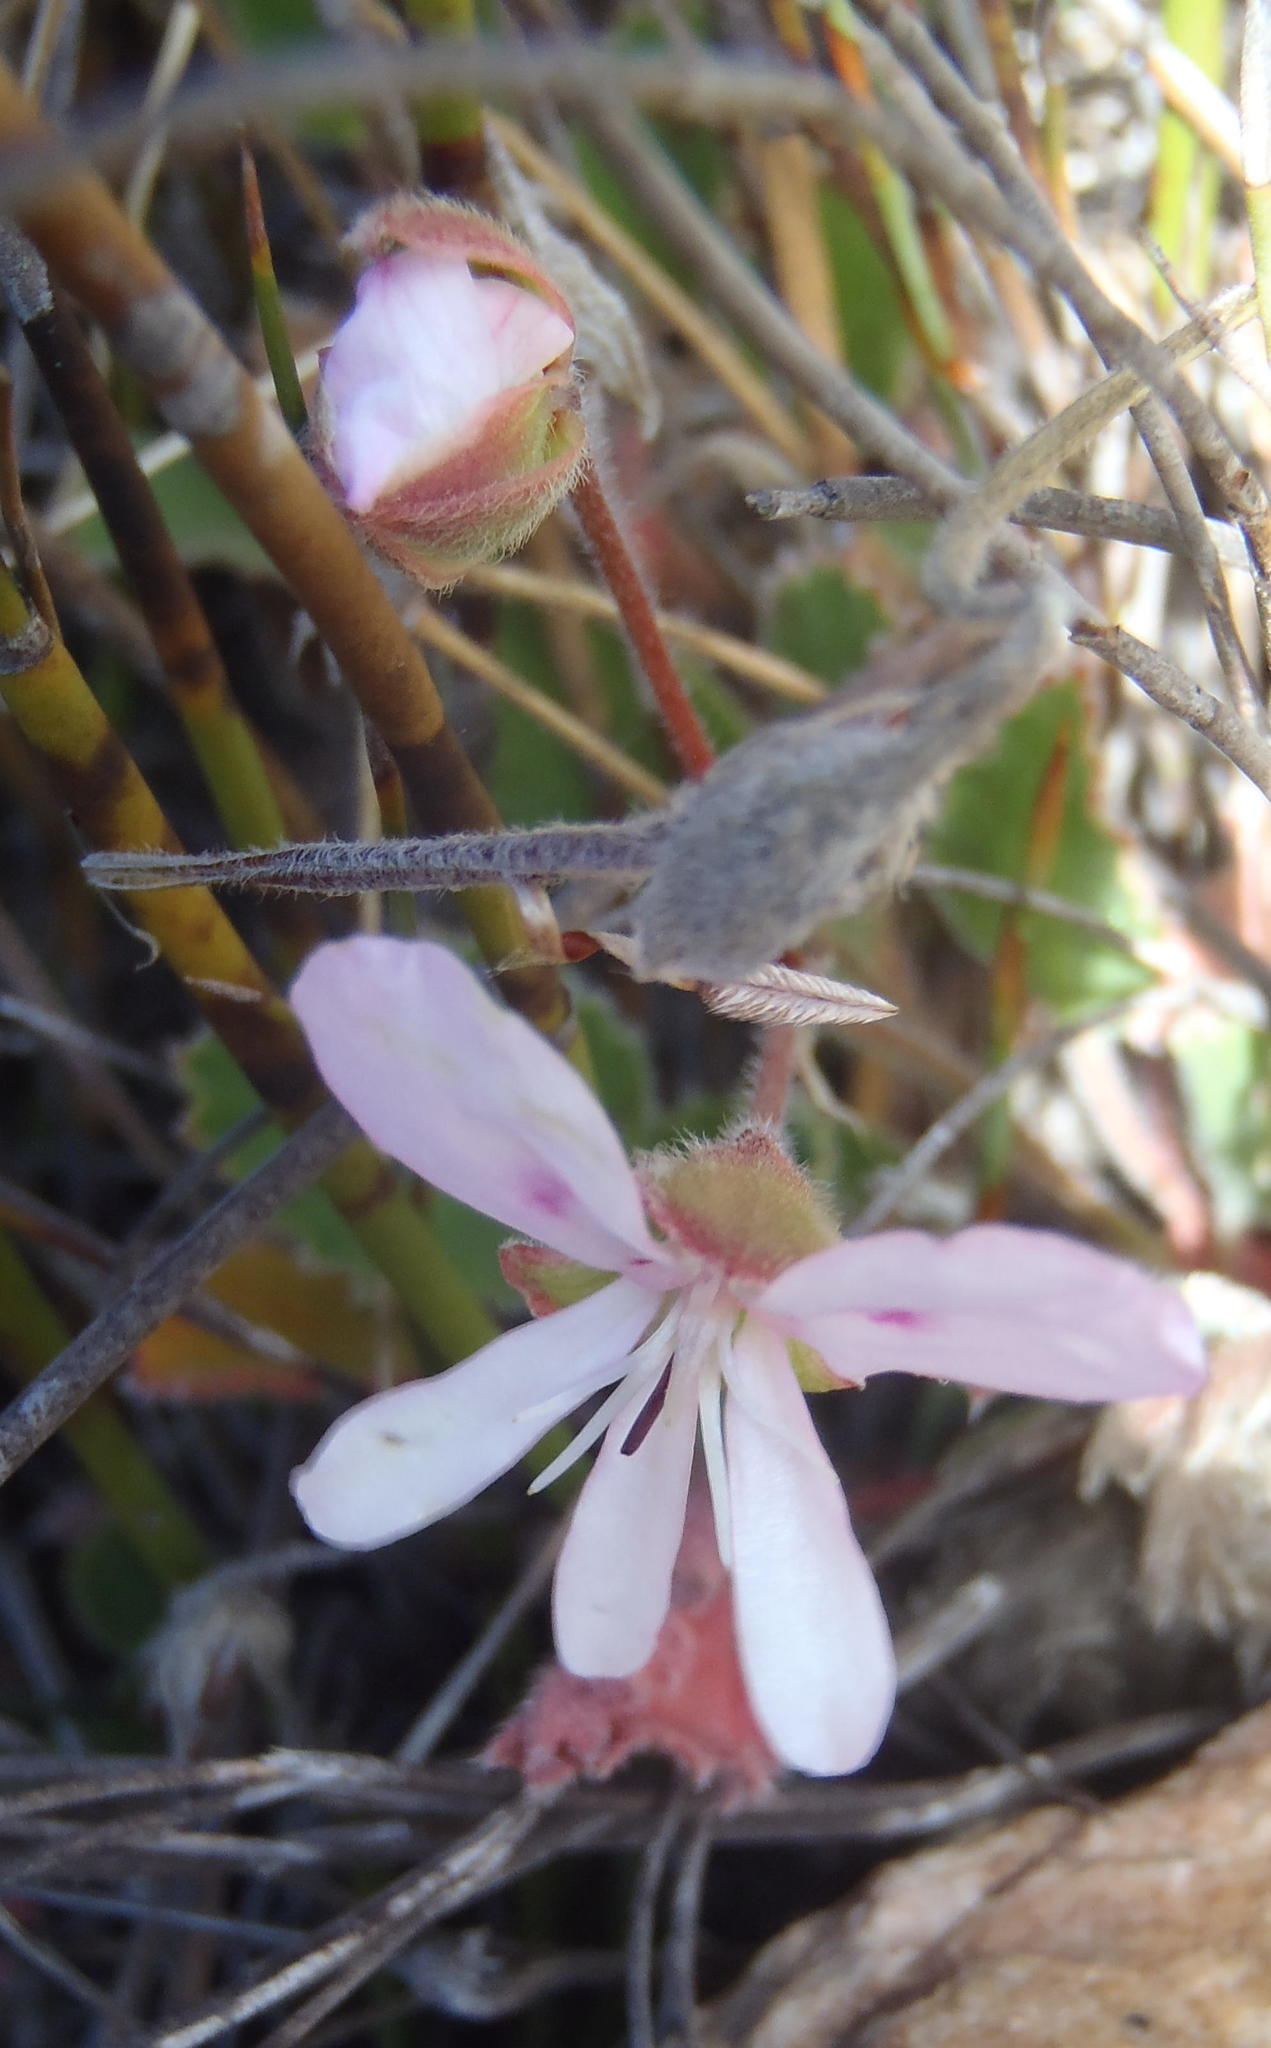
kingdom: Plantae
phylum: Tracheophyta
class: Magnoliopsida
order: Geraniales
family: Geraniaceae
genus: Pelargonium
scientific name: Pelargonium ovale
